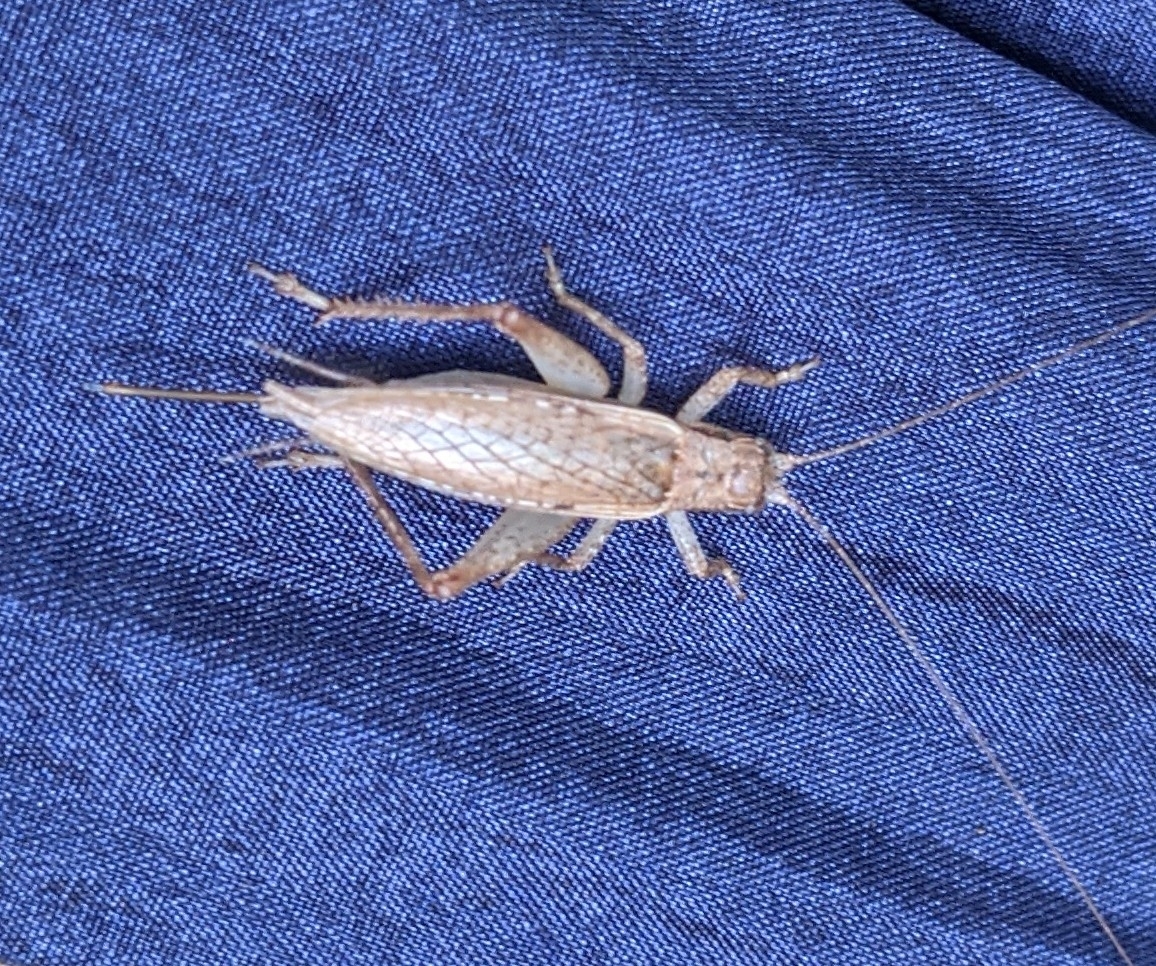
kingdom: Animalia
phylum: Arthropoda
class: Insecta
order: Orthoptera
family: Gryllidae
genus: Hapithus
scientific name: Hapithus saltator
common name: Jumping bush cricket
